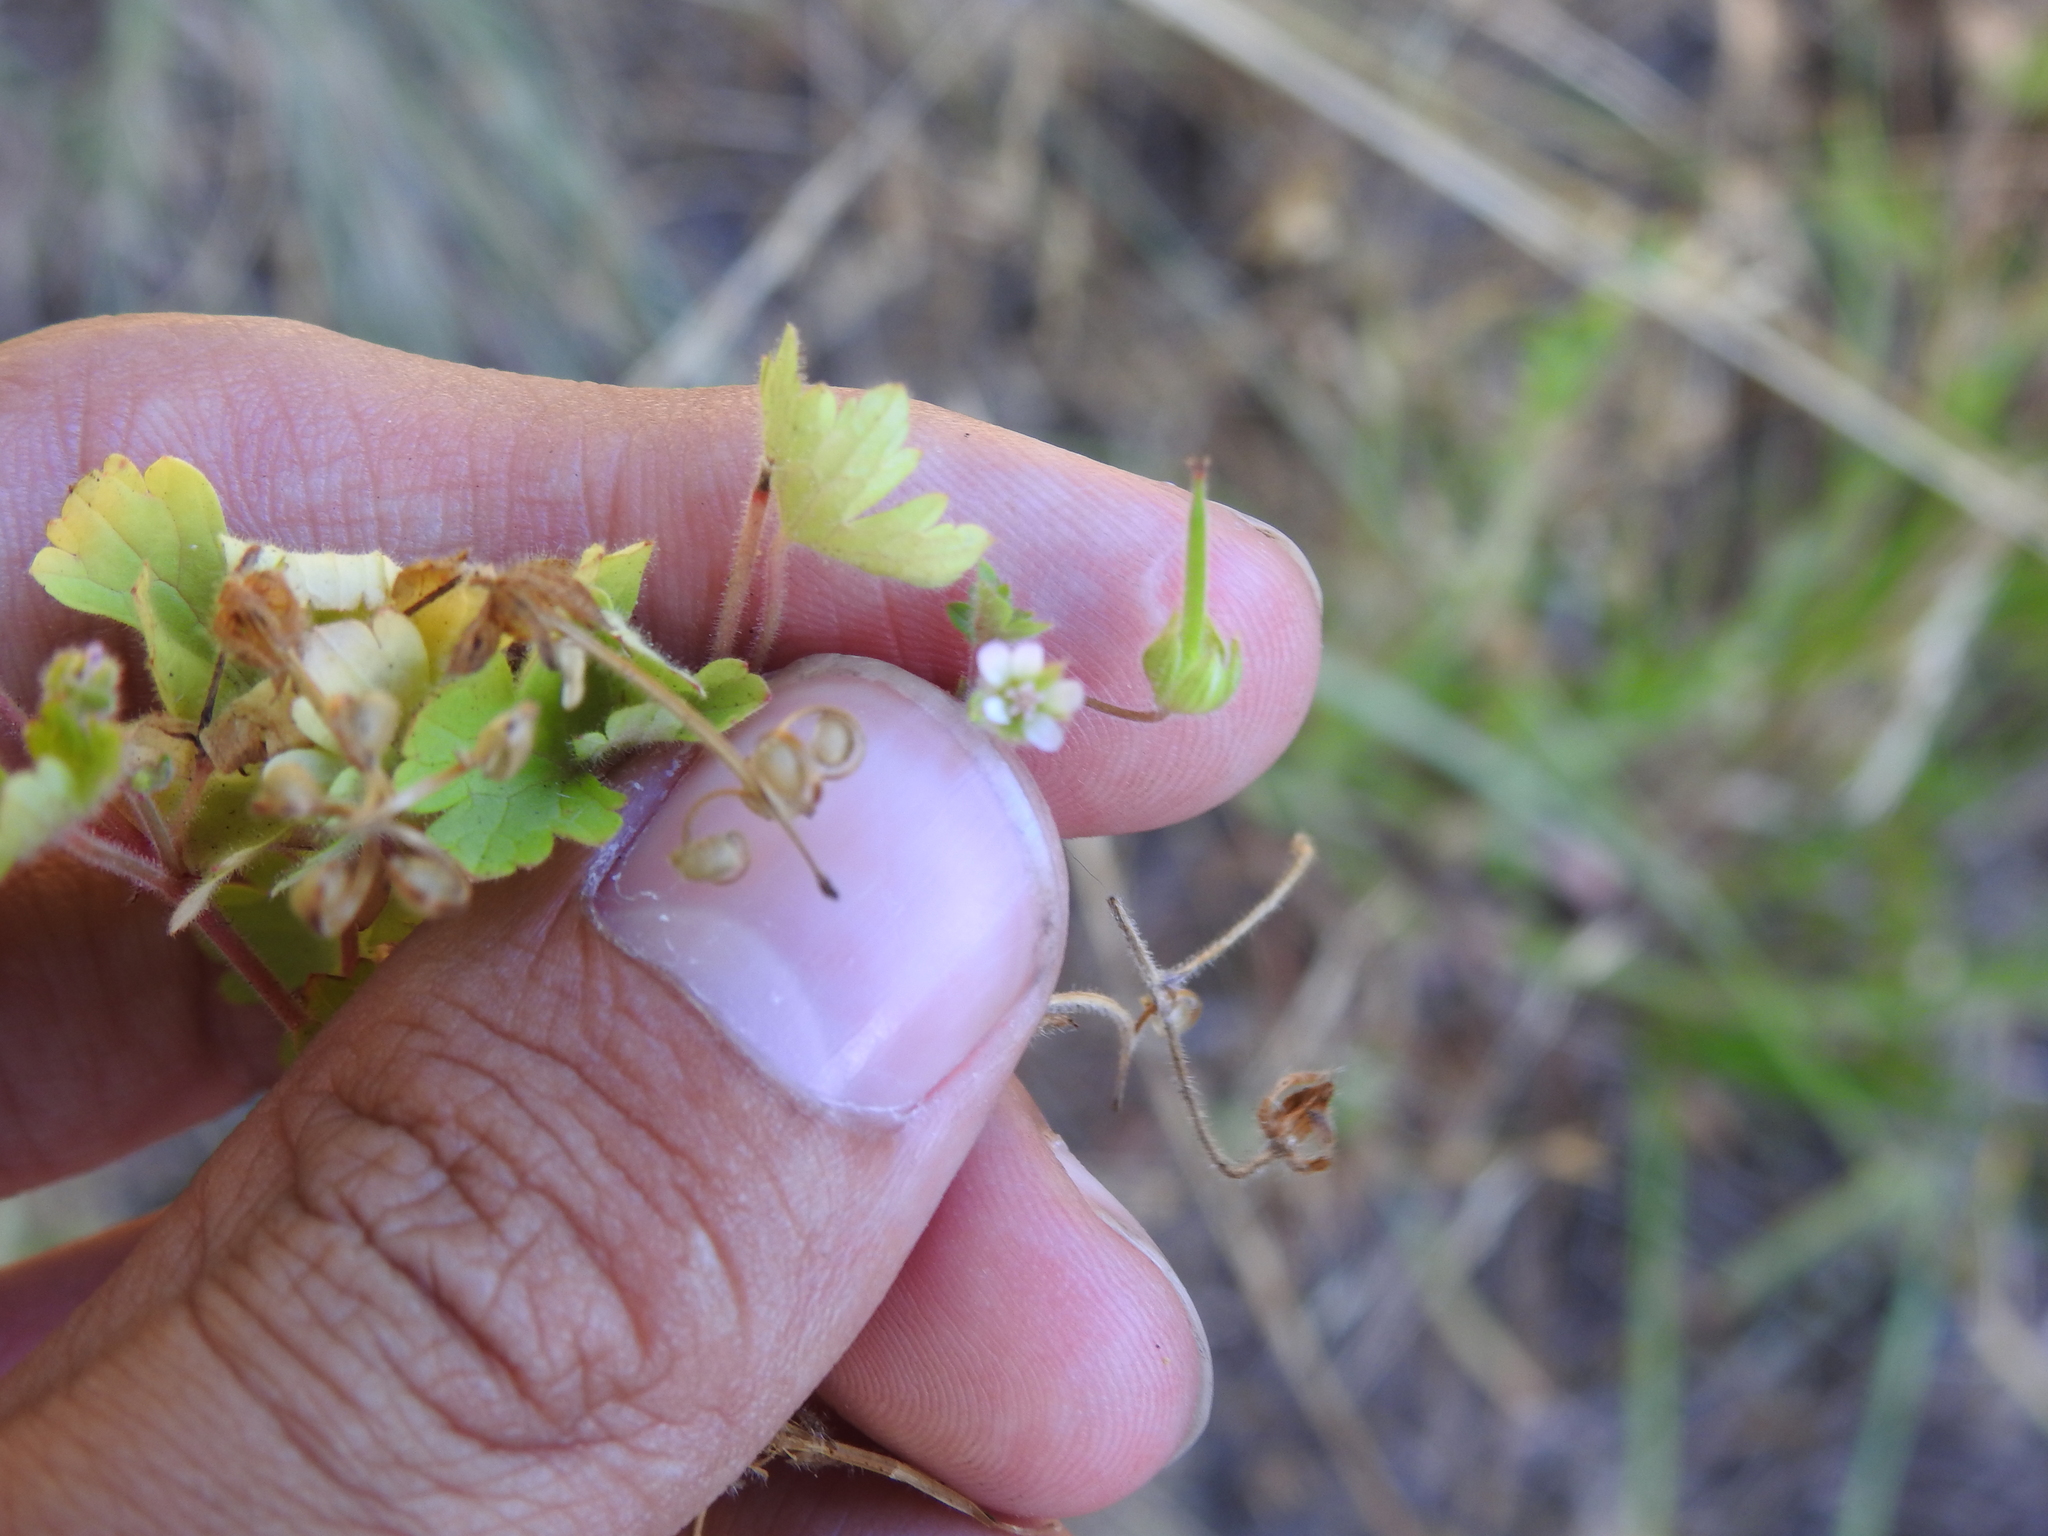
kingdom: Plantae
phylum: Tracheophyta
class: Magnoliopsida
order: Geraniales
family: Geraniaceae
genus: Geranium
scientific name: Geranium rotundifolium
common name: Round-leaved crane's-bill
